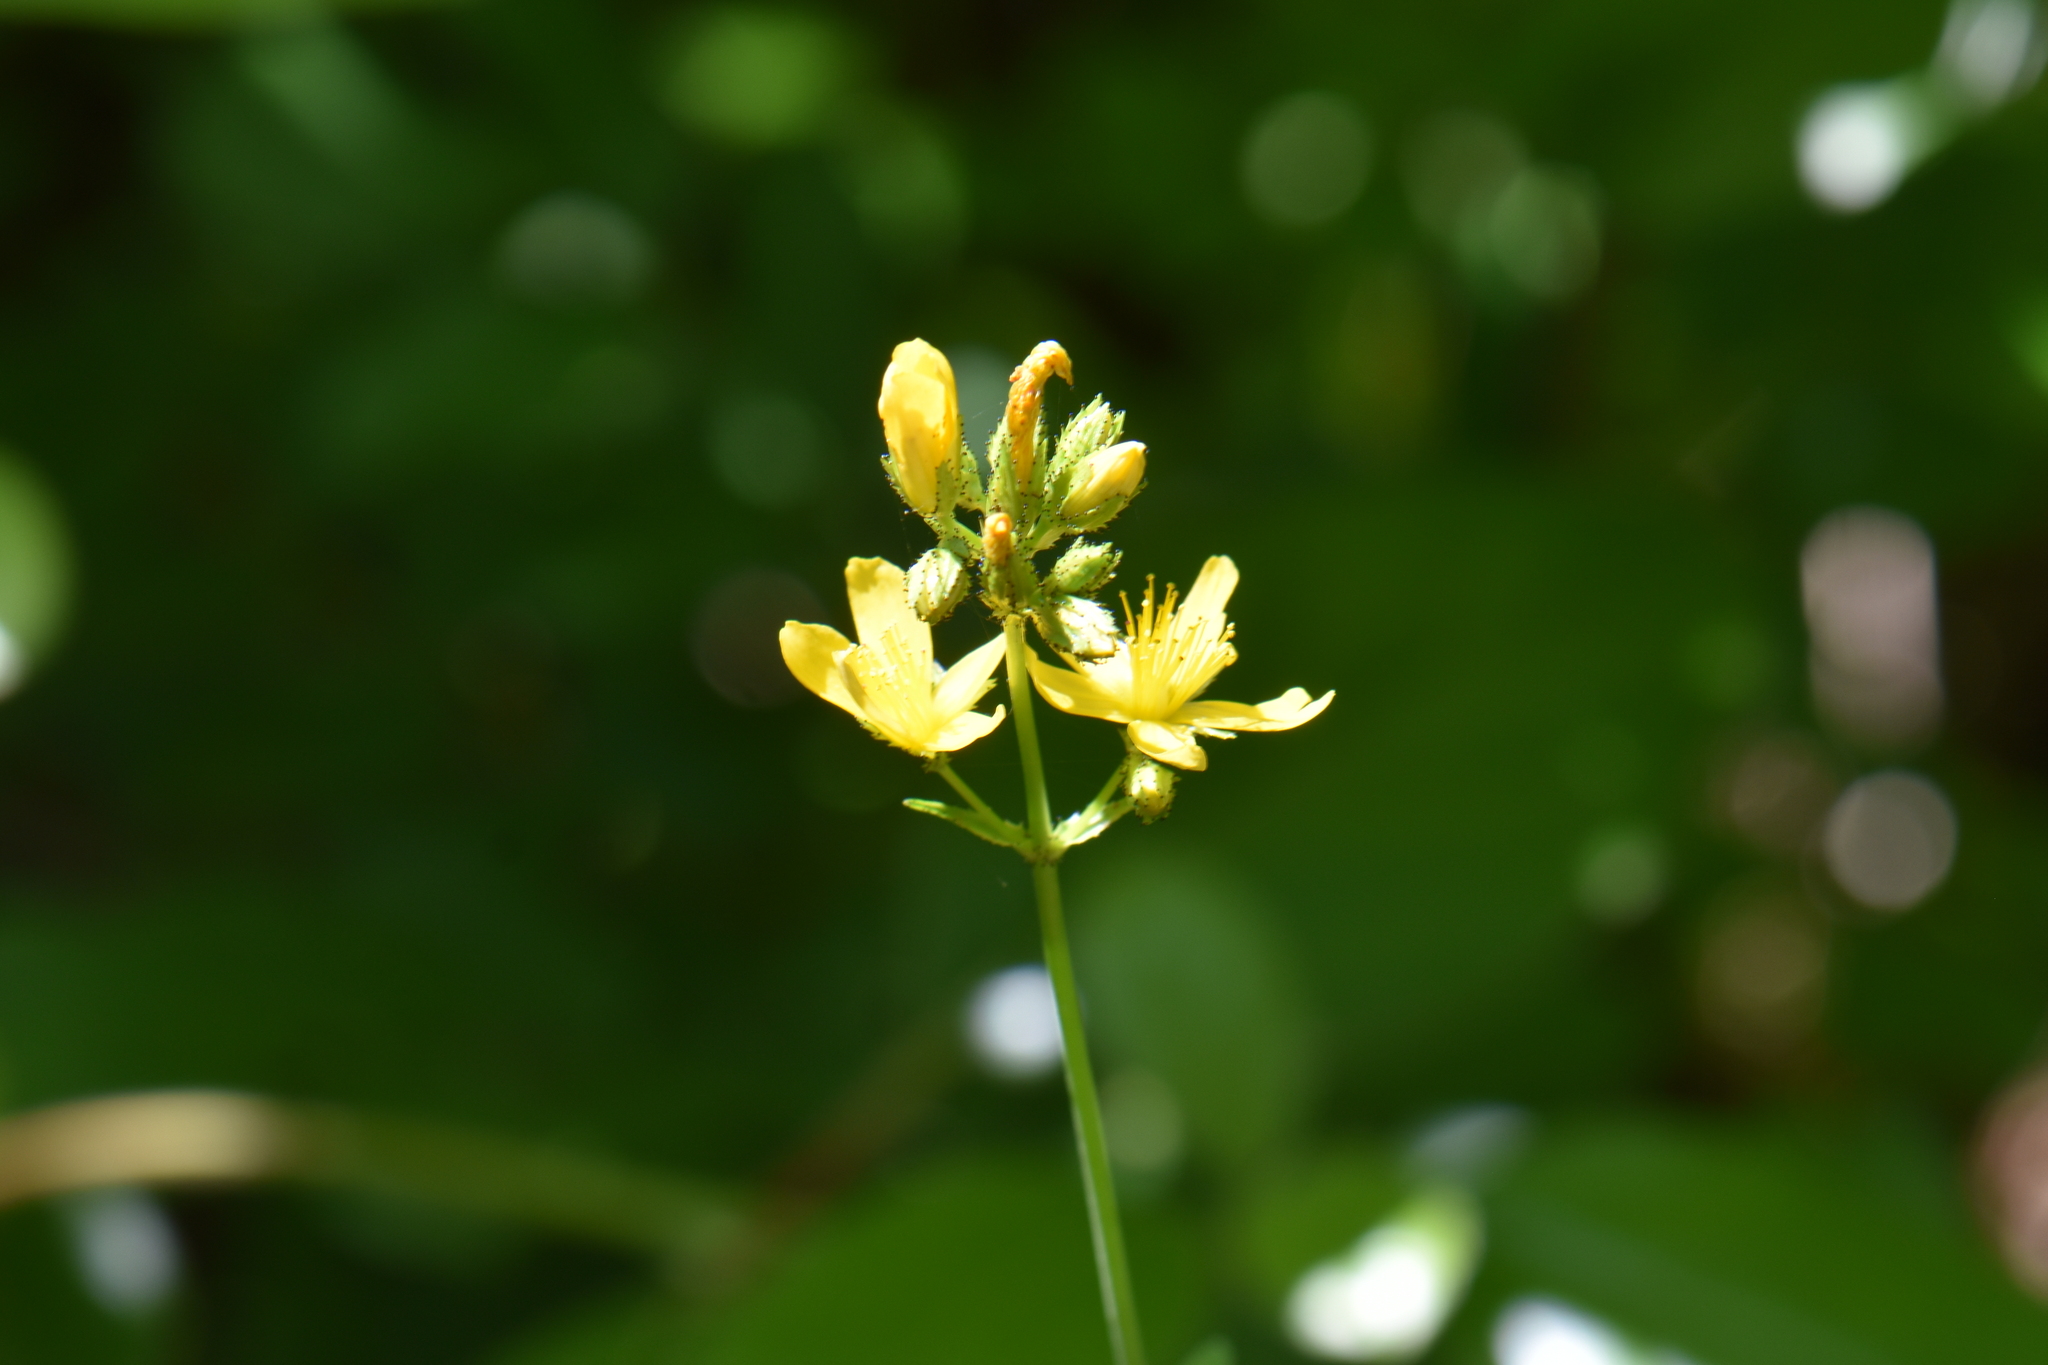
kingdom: Plantae
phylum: Tracheophyta
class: Magnoliopsida
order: Malpighiales
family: Hypericaceae
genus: Hypericum
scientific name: Hypericum montanum
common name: Pale st. john's-wort
